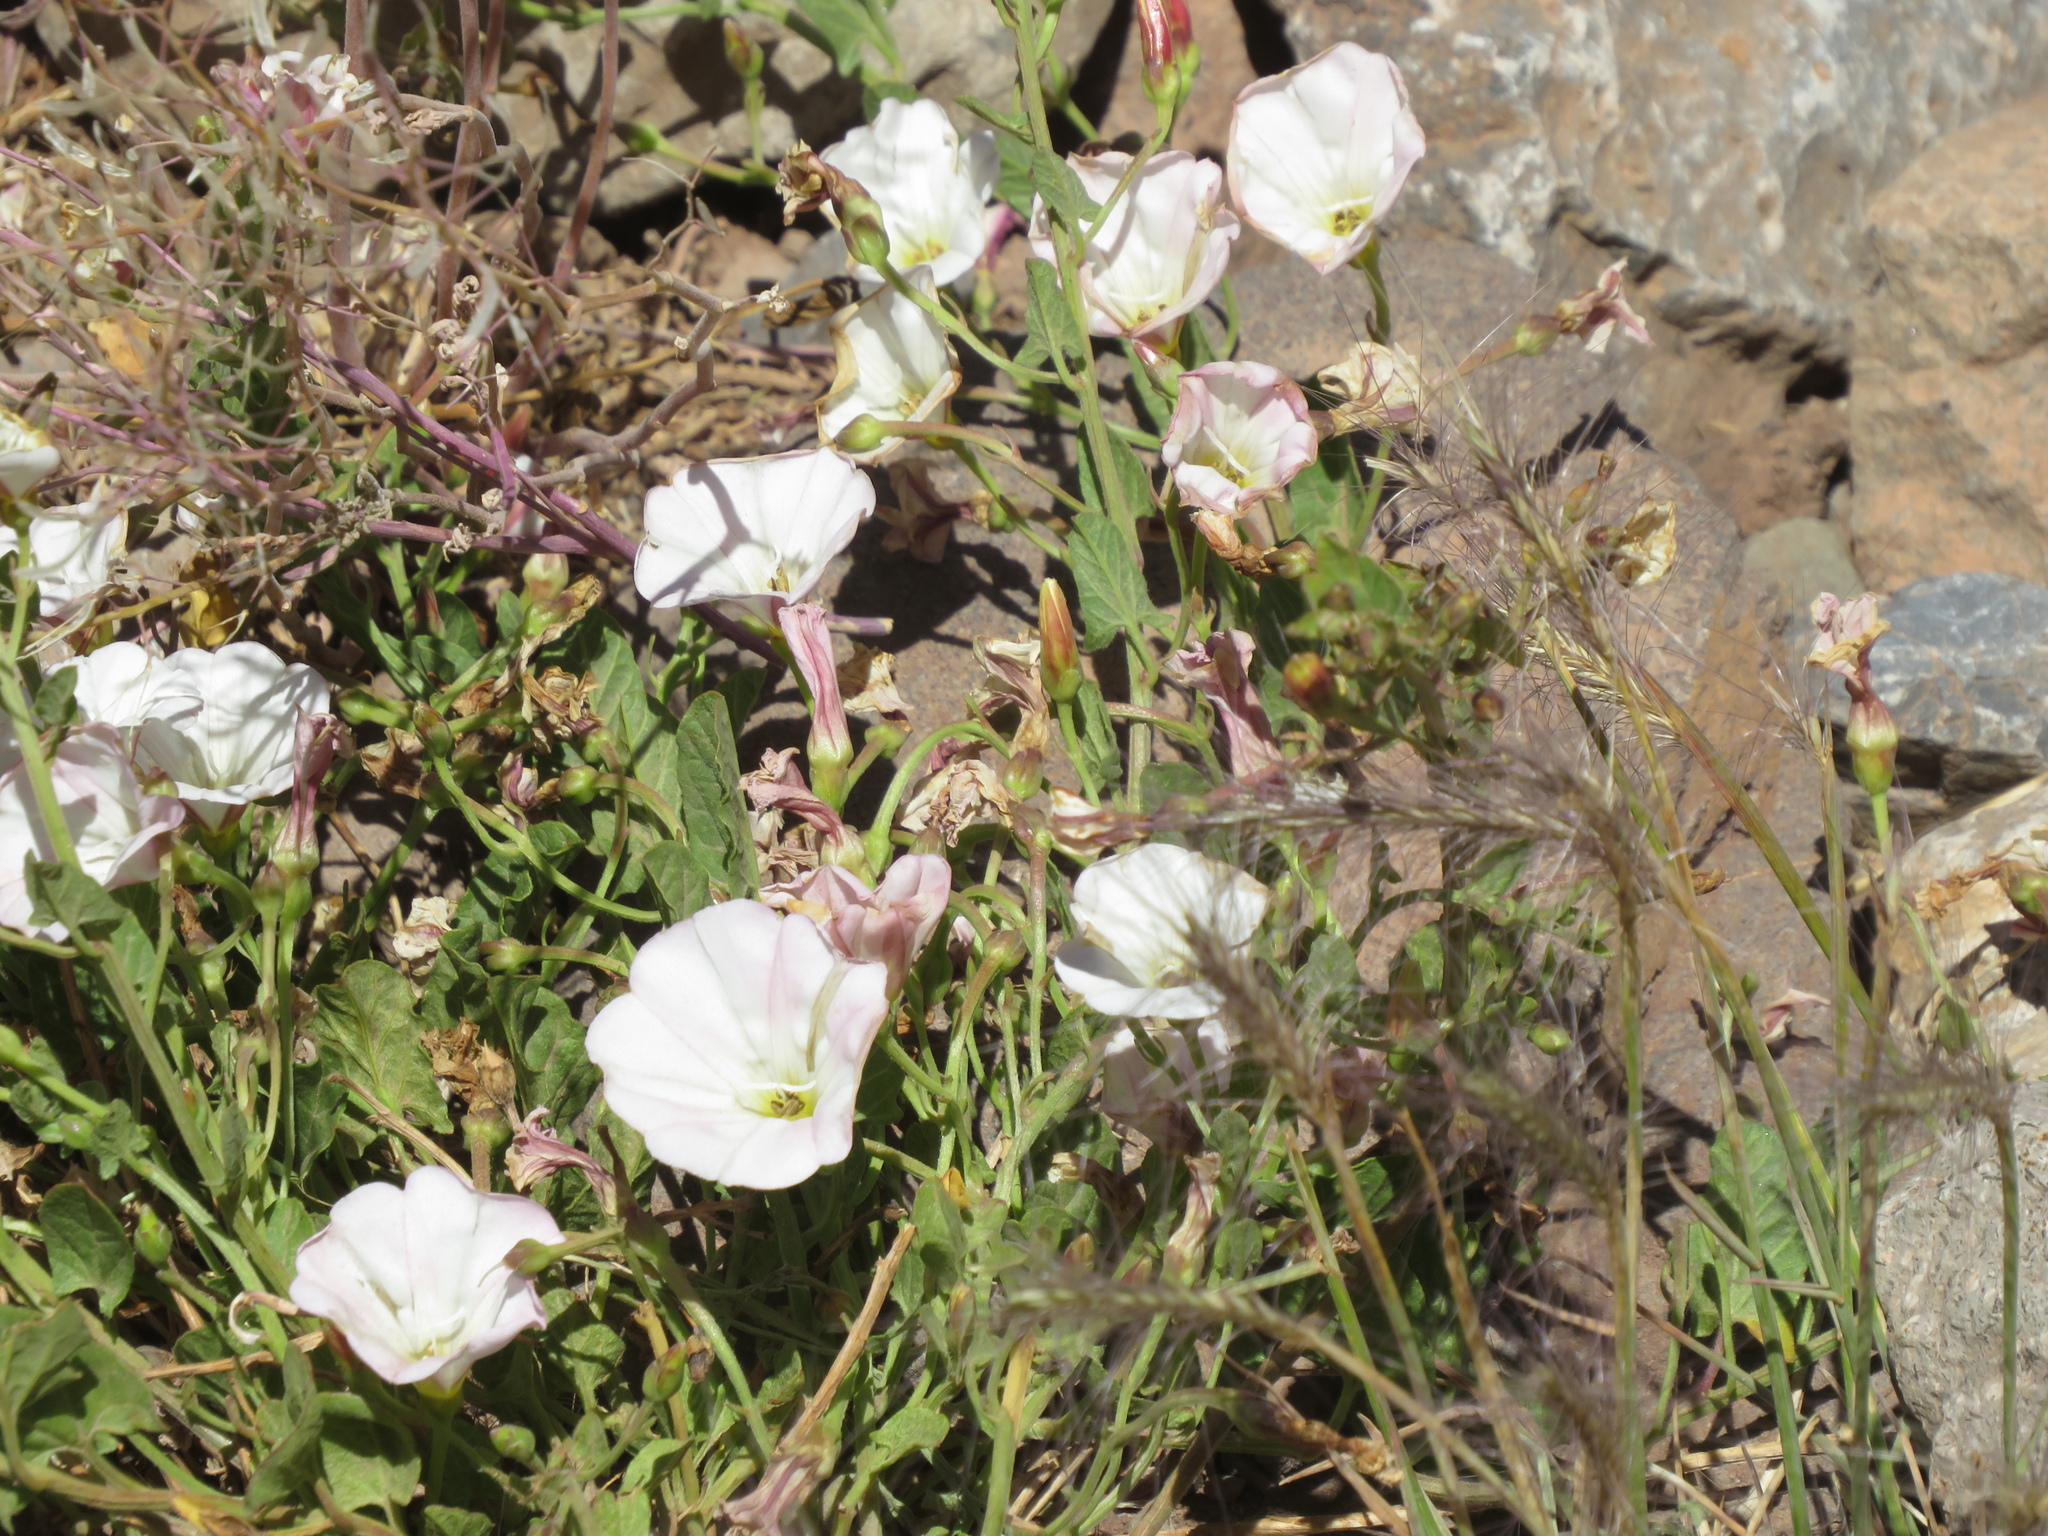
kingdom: Plantae
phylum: Tracheophyta
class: Magnoliopsida
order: Solanales
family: Convolvulaceae
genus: Convolvulus
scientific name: Convolvulus arvensis
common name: Field bindweed
